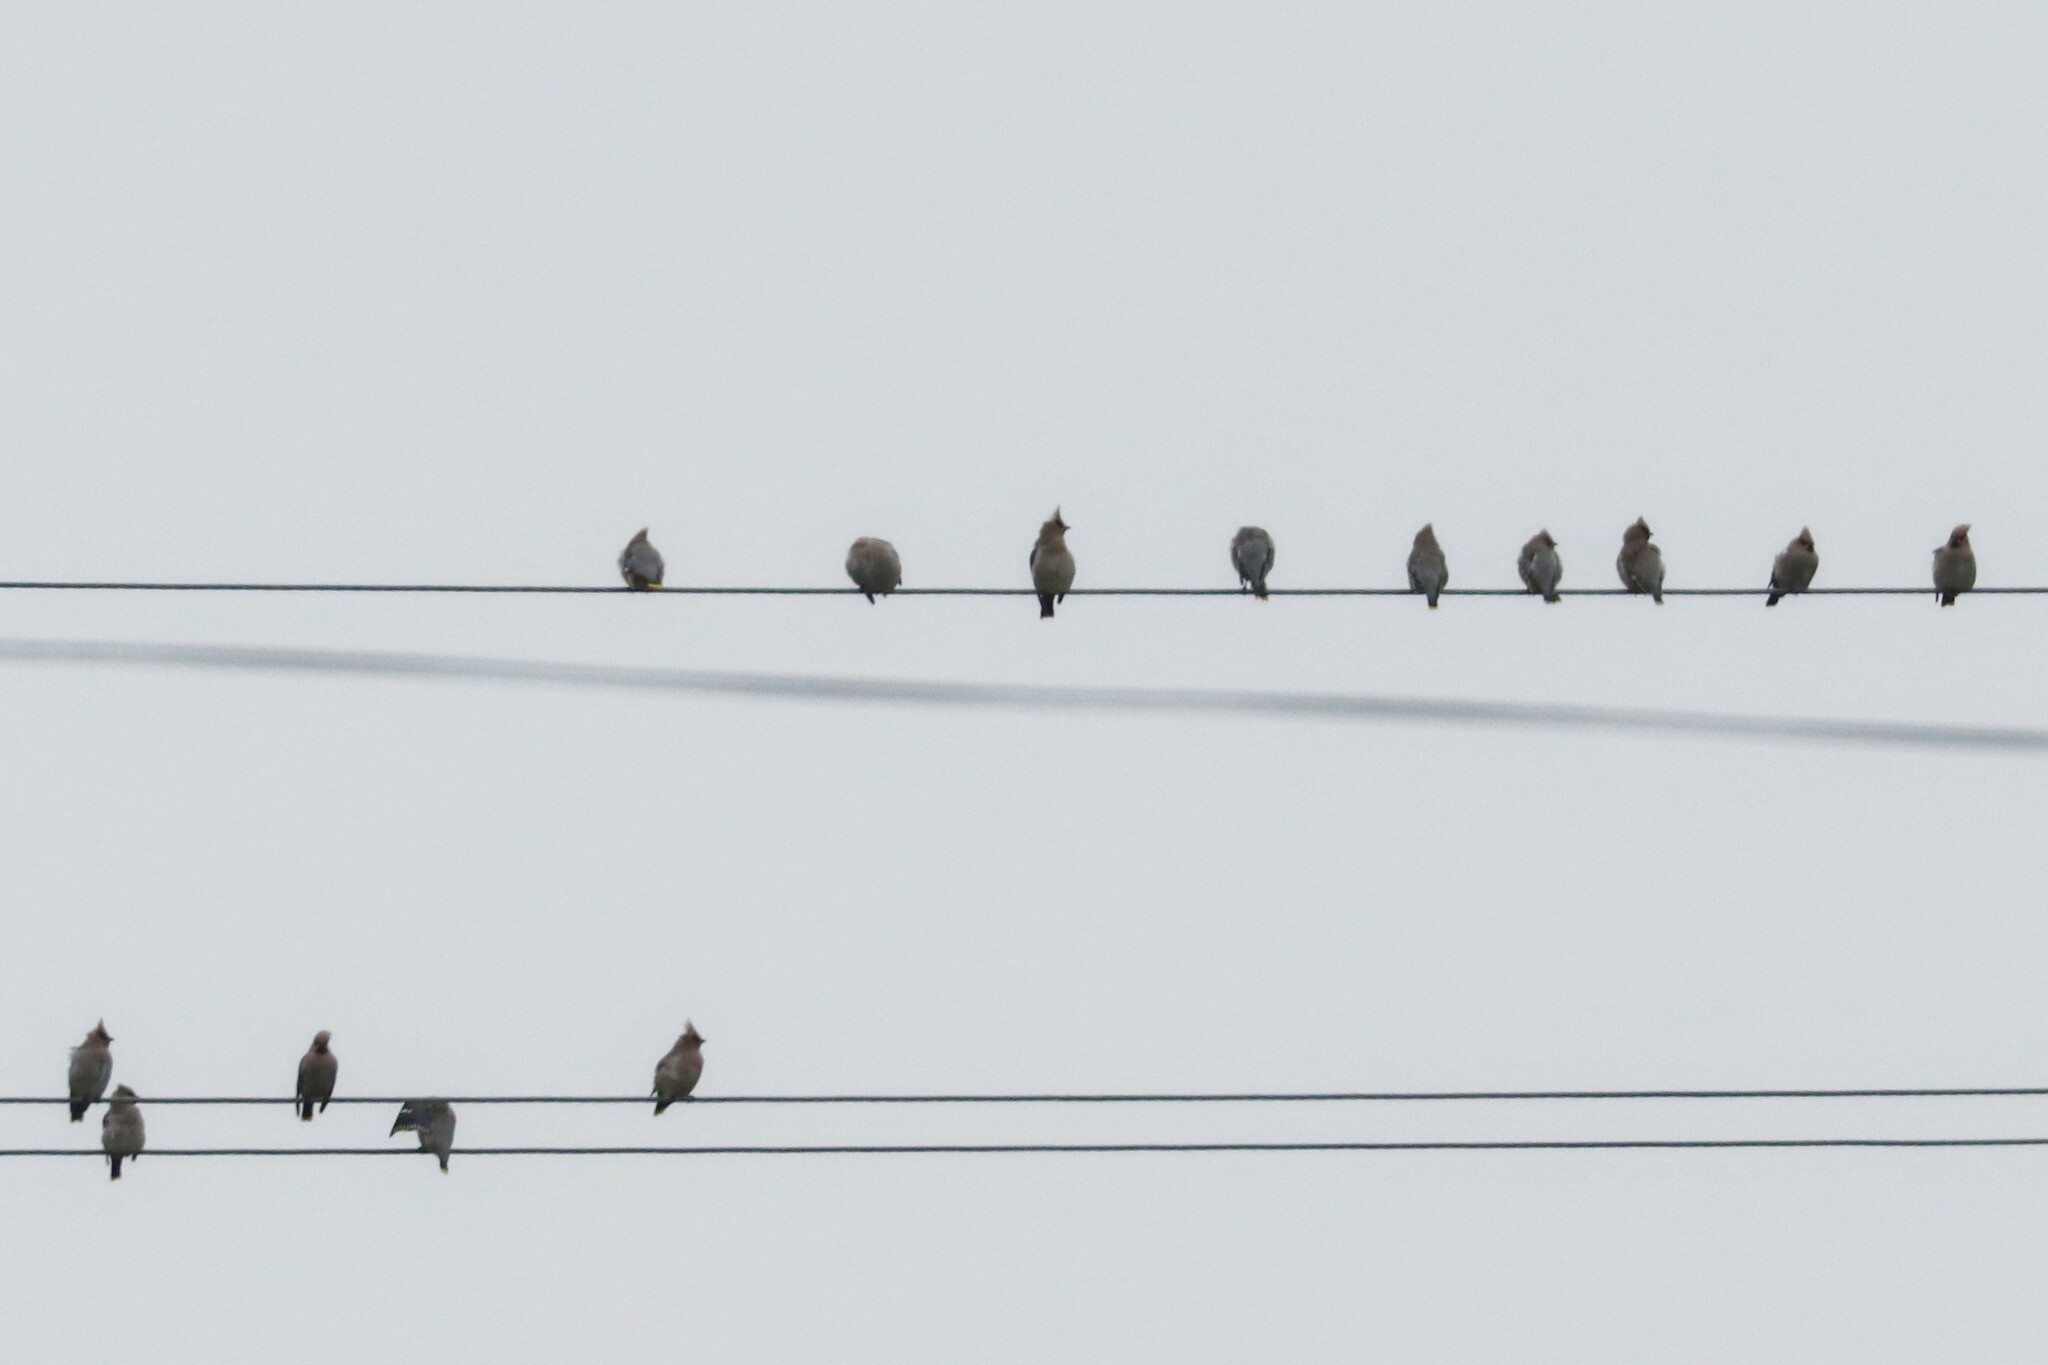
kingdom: Animalia
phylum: Chordata
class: Aves
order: Passeriformes
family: Bombycillidae
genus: Bombycilla
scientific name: Bombycilla garrulus
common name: Bohemian waxwing
